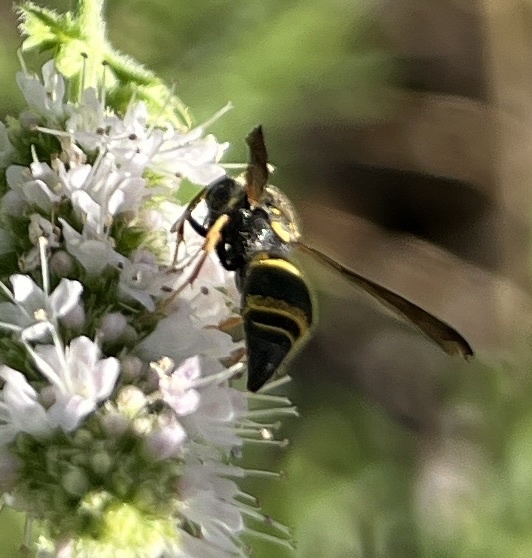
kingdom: Animalia
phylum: Arthropoda
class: Insecta
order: Hymenoptera
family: Vespidae
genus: Ancistrocerus
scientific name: Ancistrocerus campestris
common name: Smiling mason wasp
